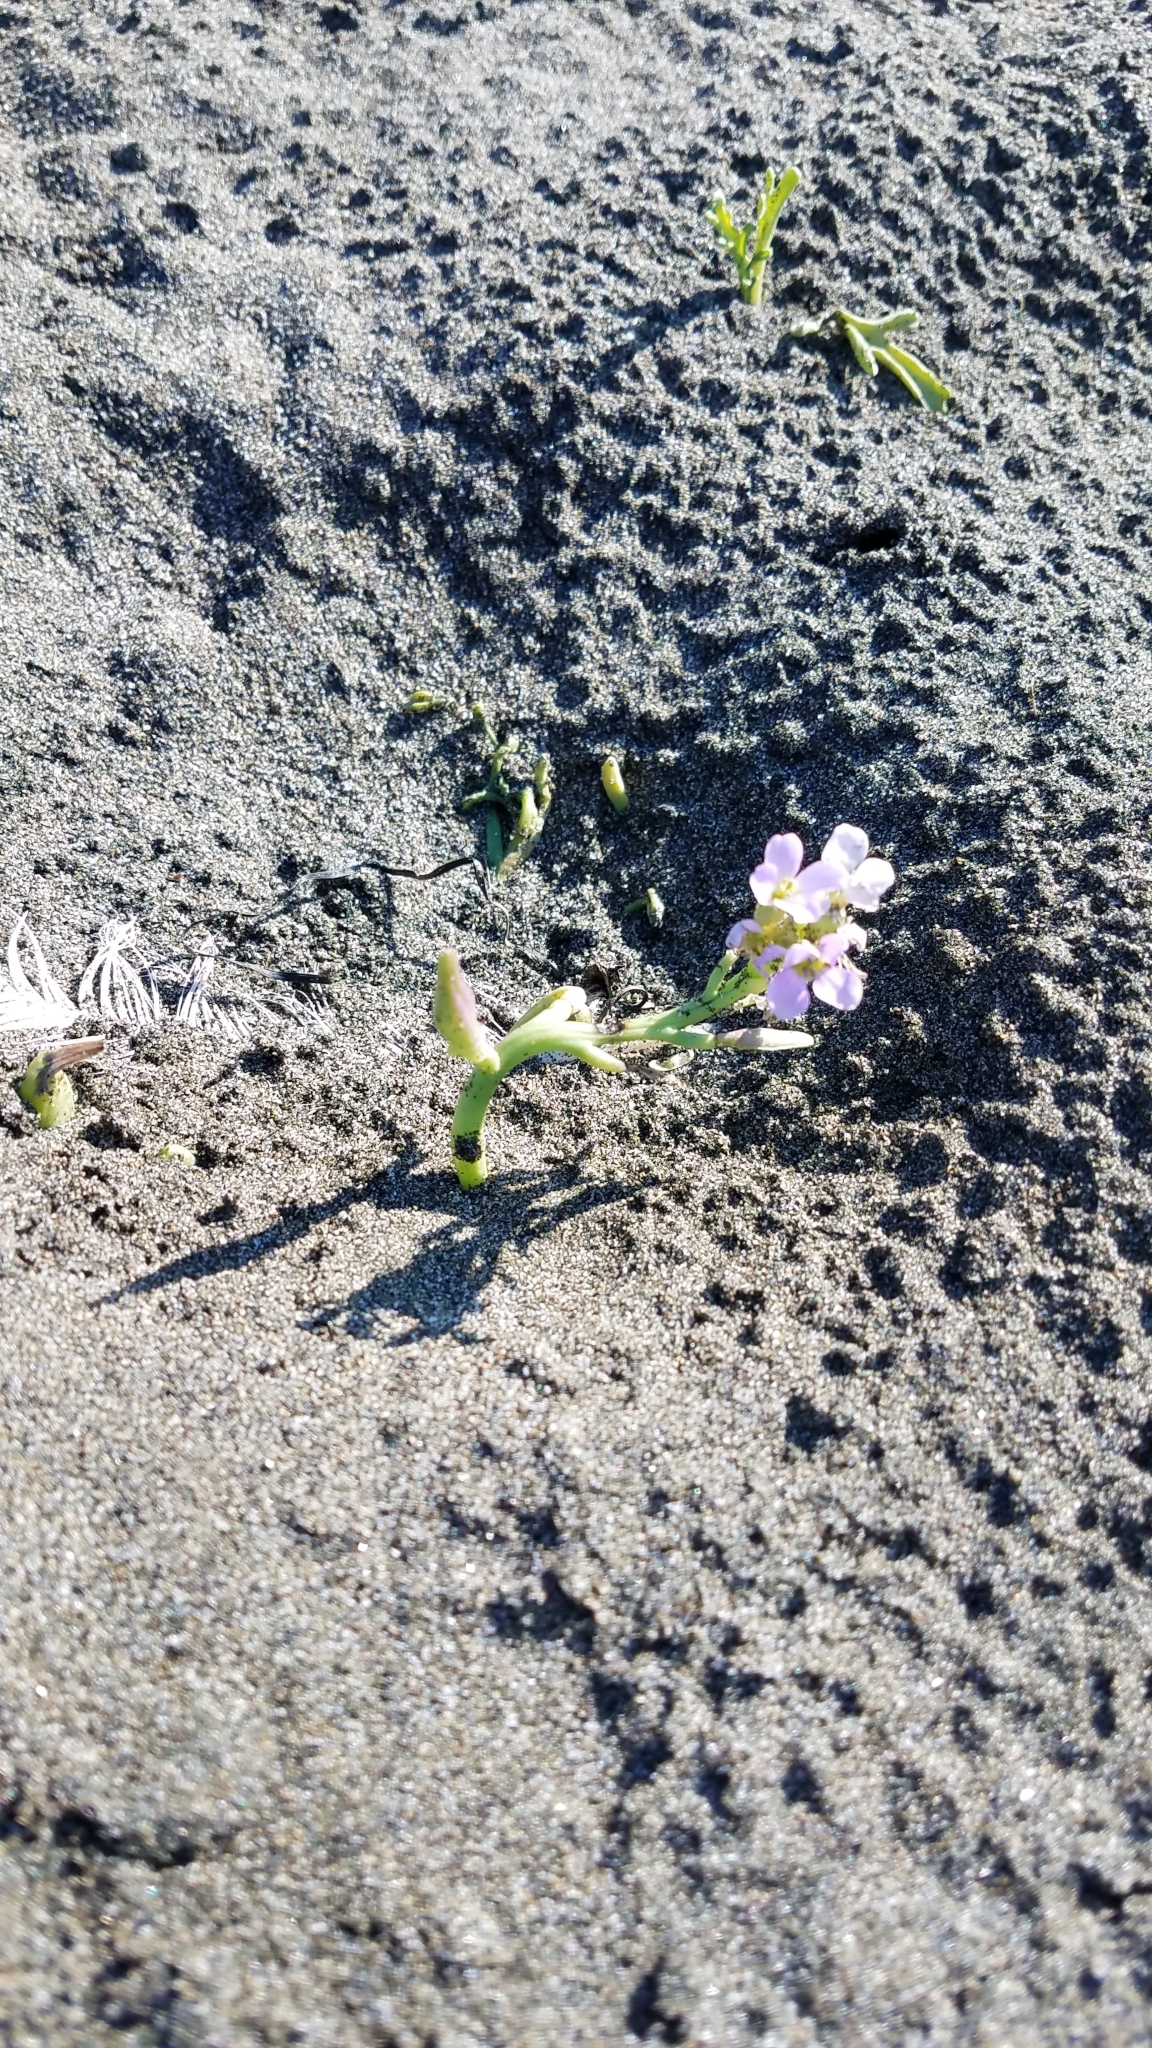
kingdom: Plantae
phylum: Tracheophyta
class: Magnoliopsida
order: Brassicales
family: Brassicaceae
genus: Cakile
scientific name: Cakile maritima
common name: Sea rocket
